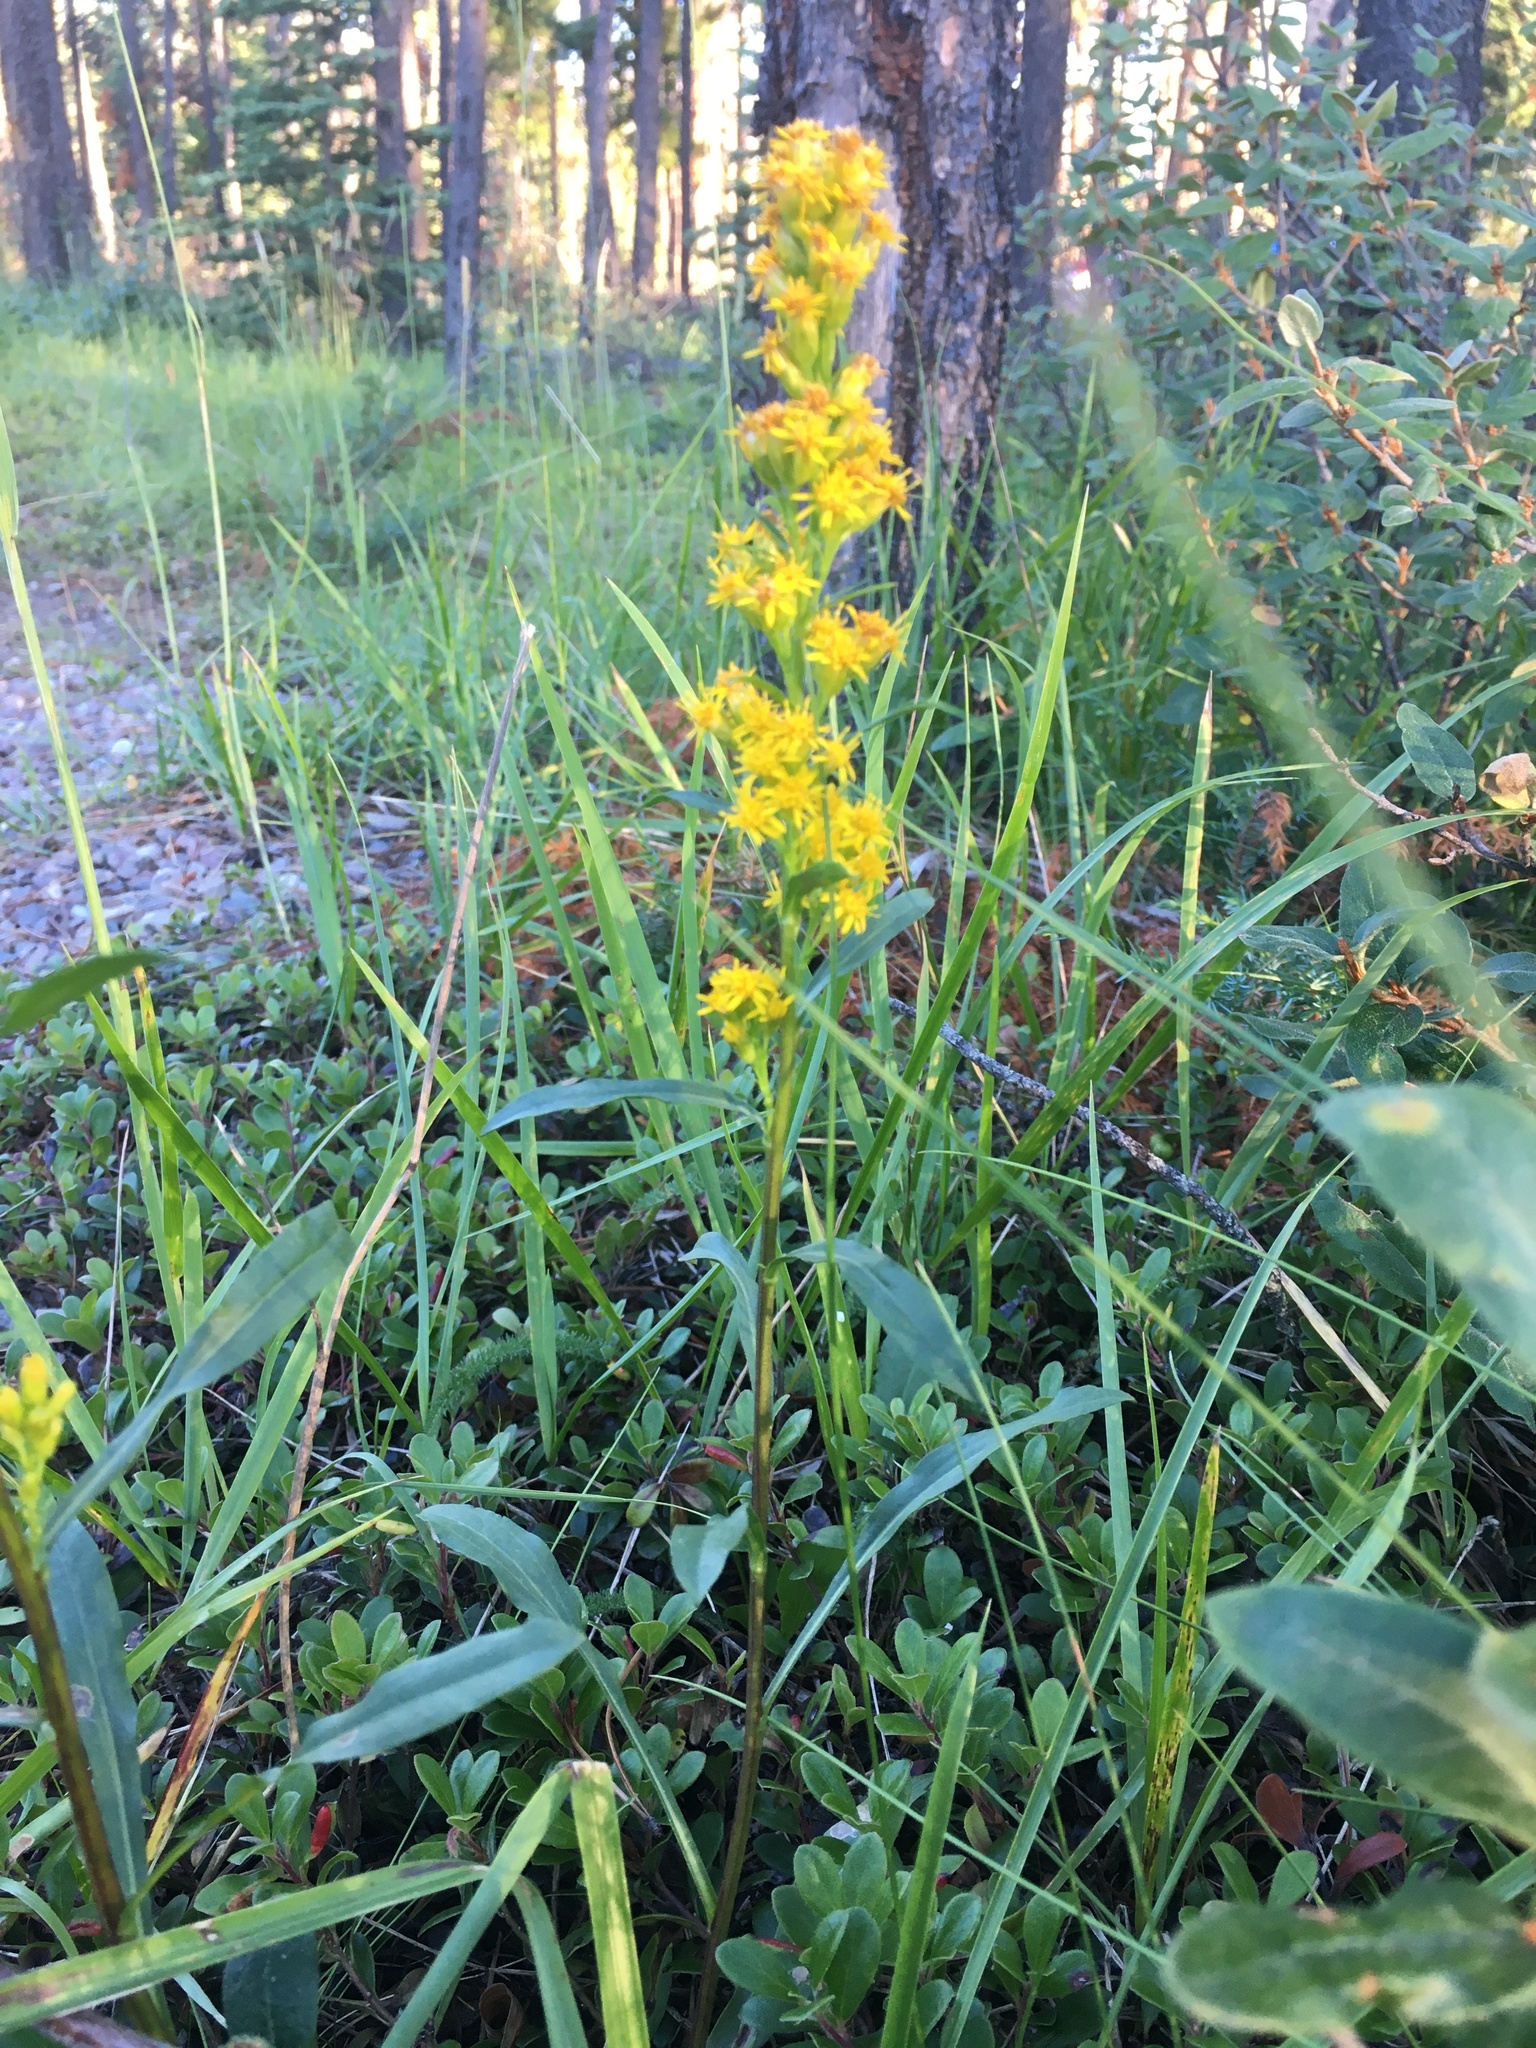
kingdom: Plantae
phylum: Tracheophyta
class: Magnoliopsida
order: Asterales
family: Asteraceae
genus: Solidago
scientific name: Solidago glutinosa
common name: Decumbent goldenrod
